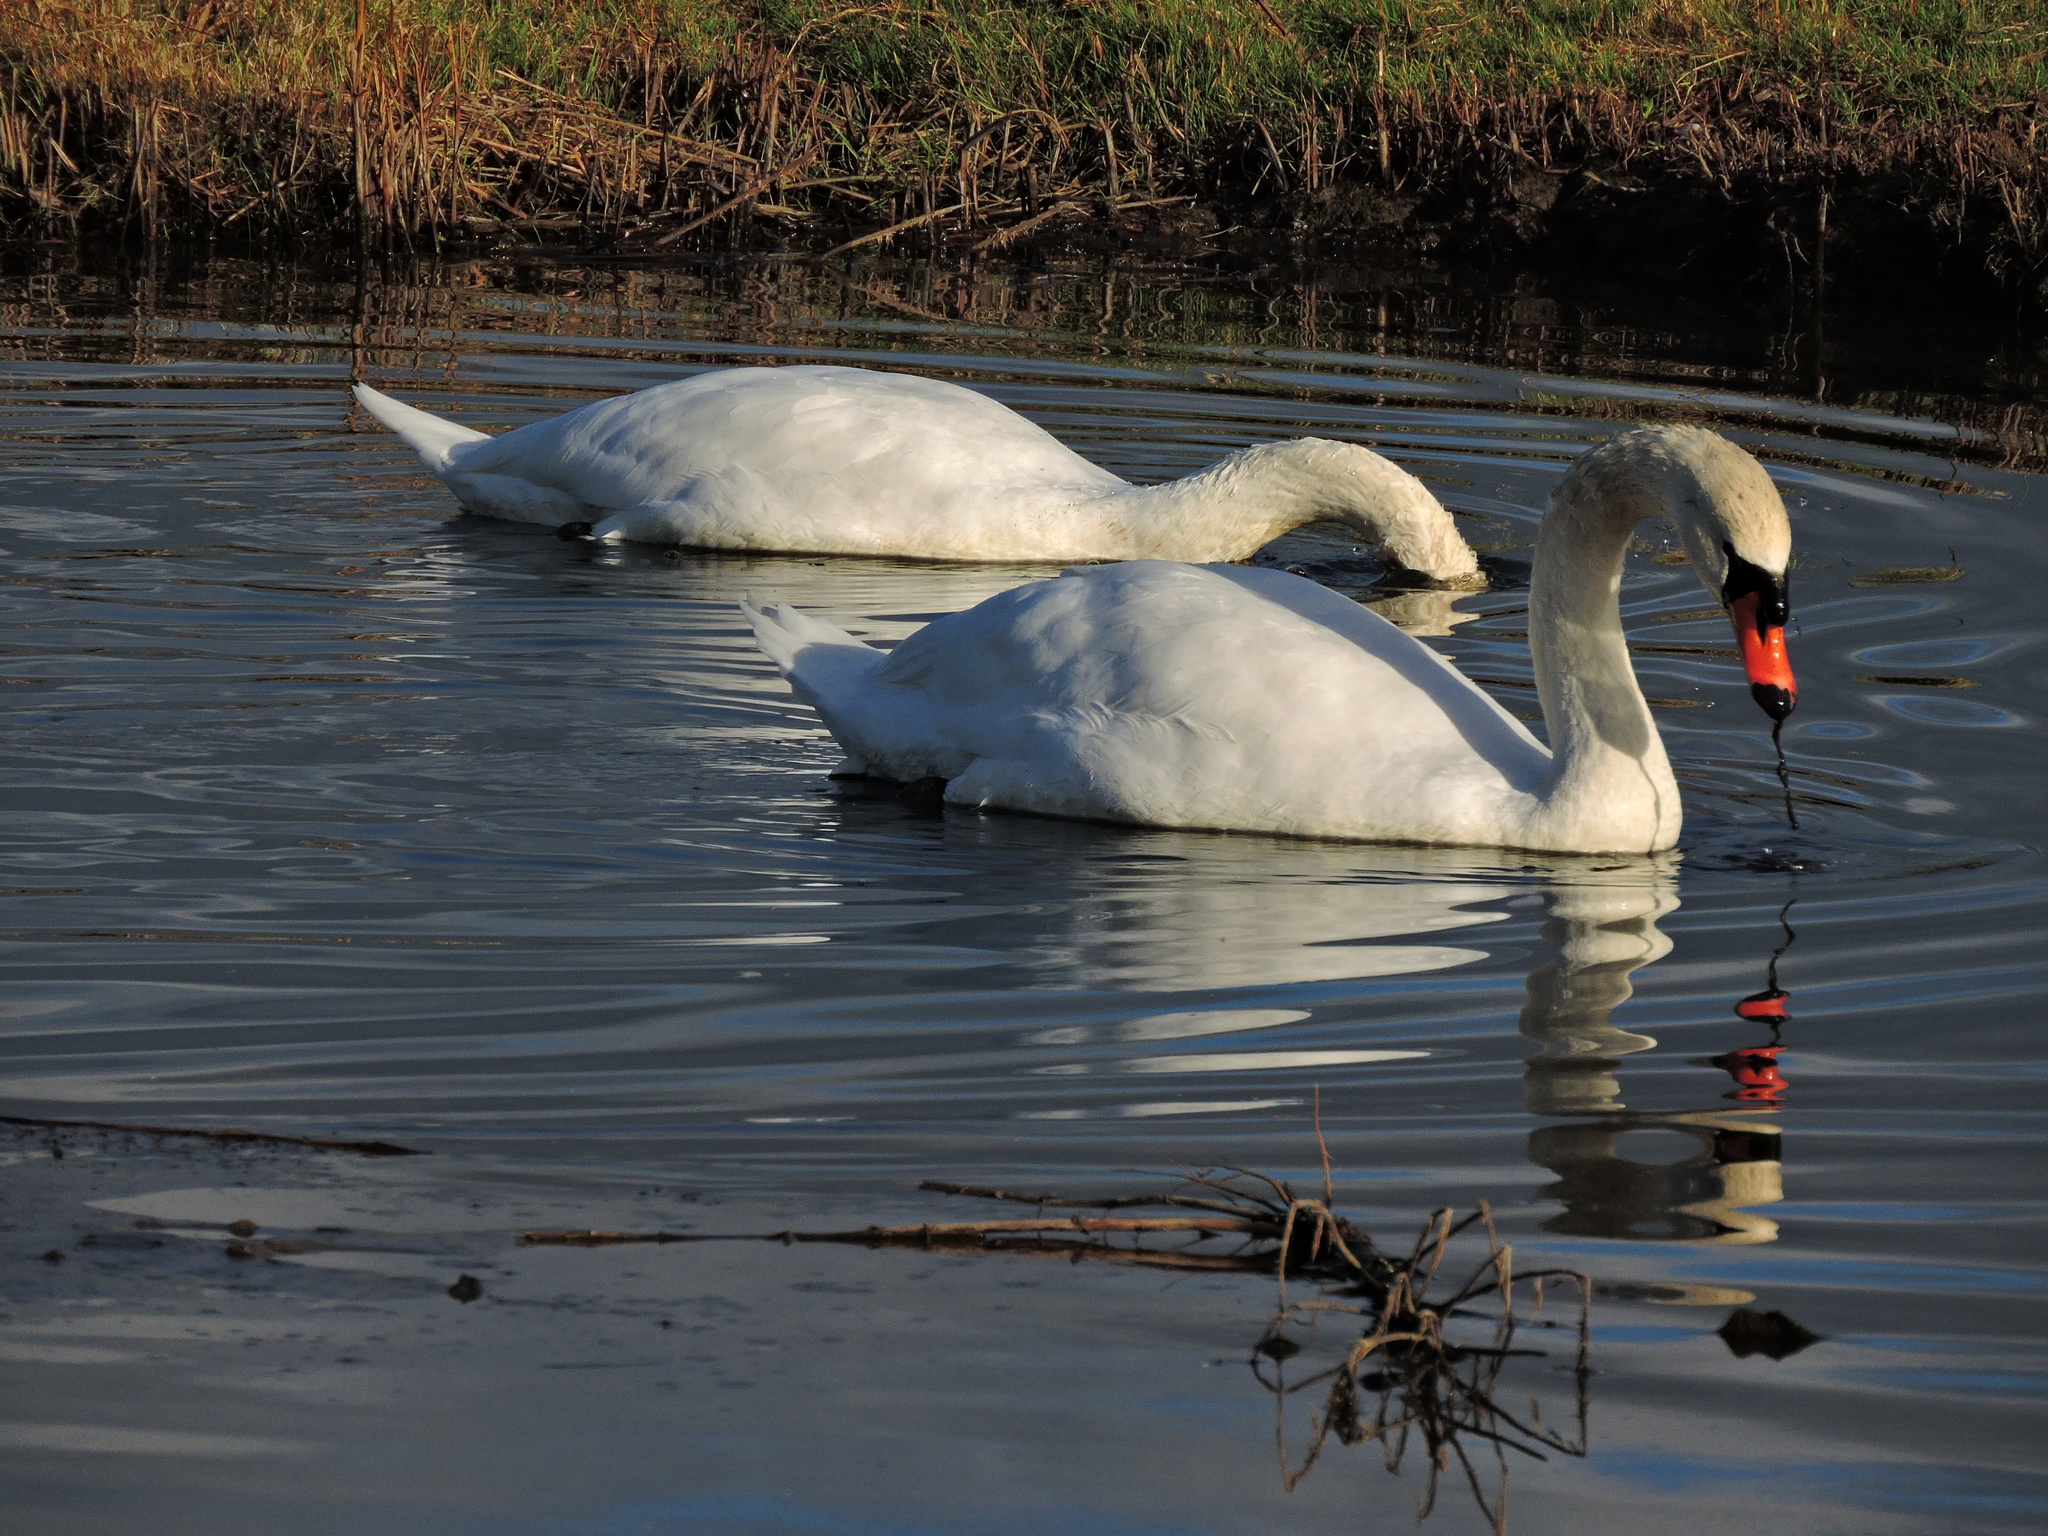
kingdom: Animalia
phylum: Chordata
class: Aves
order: Anseriformes
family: Anatidae
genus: Cygnus
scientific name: Cygnus olor
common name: Mute swan
